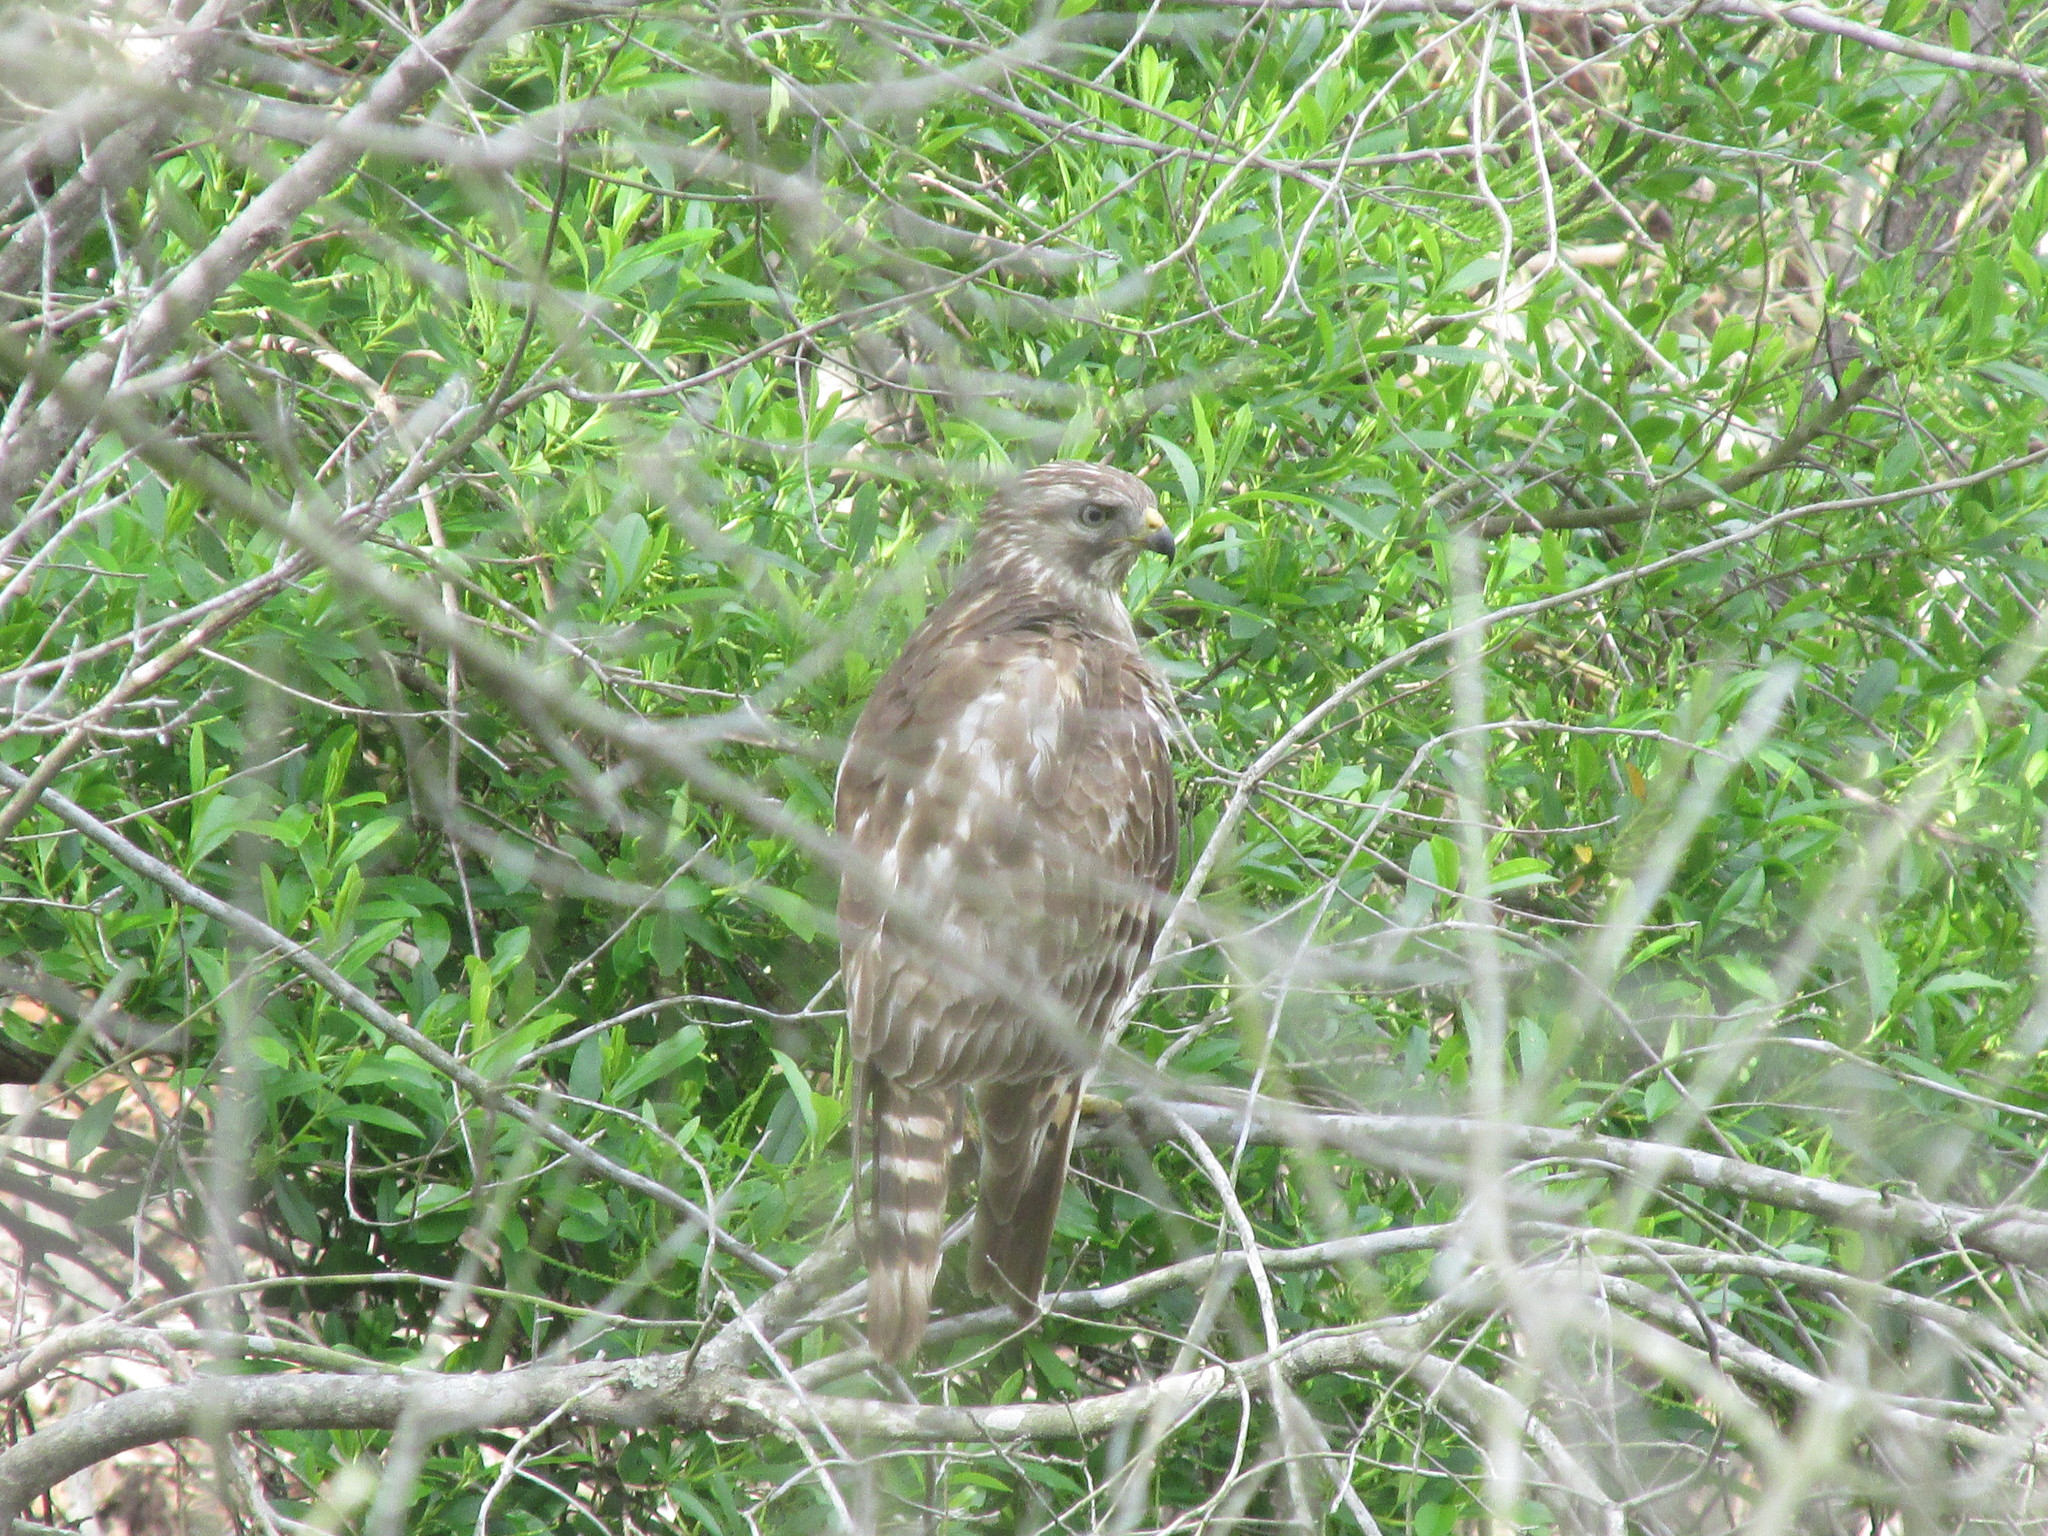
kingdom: Animalia
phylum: Chordata
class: Aves
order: Accipitriformes
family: Accipitridae
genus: Buteo
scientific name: Buteo lineatus
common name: Red-shouldered hawk
